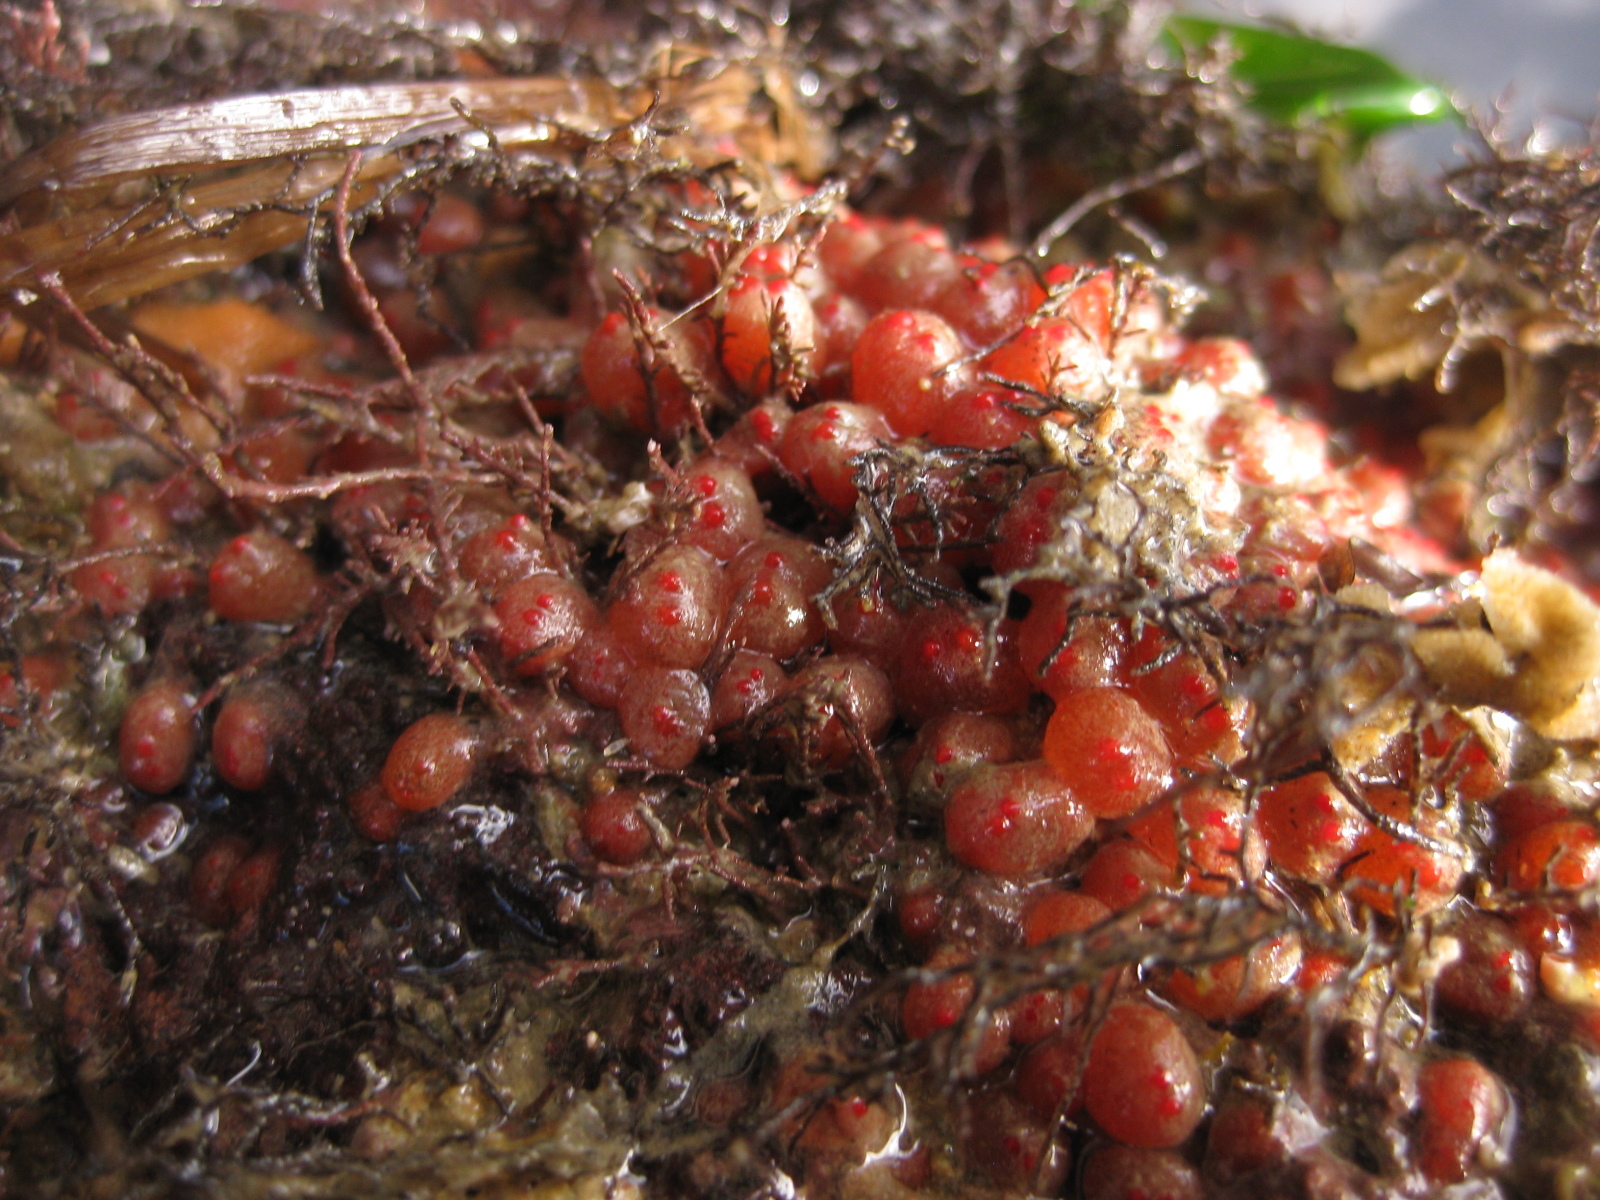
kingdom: Animalia
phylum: Chordata
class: Ascidiacea
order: Stolidobranchia
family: Styelidae
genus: Metandrocarpa
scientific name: Metandrocarpa protostigmatica
